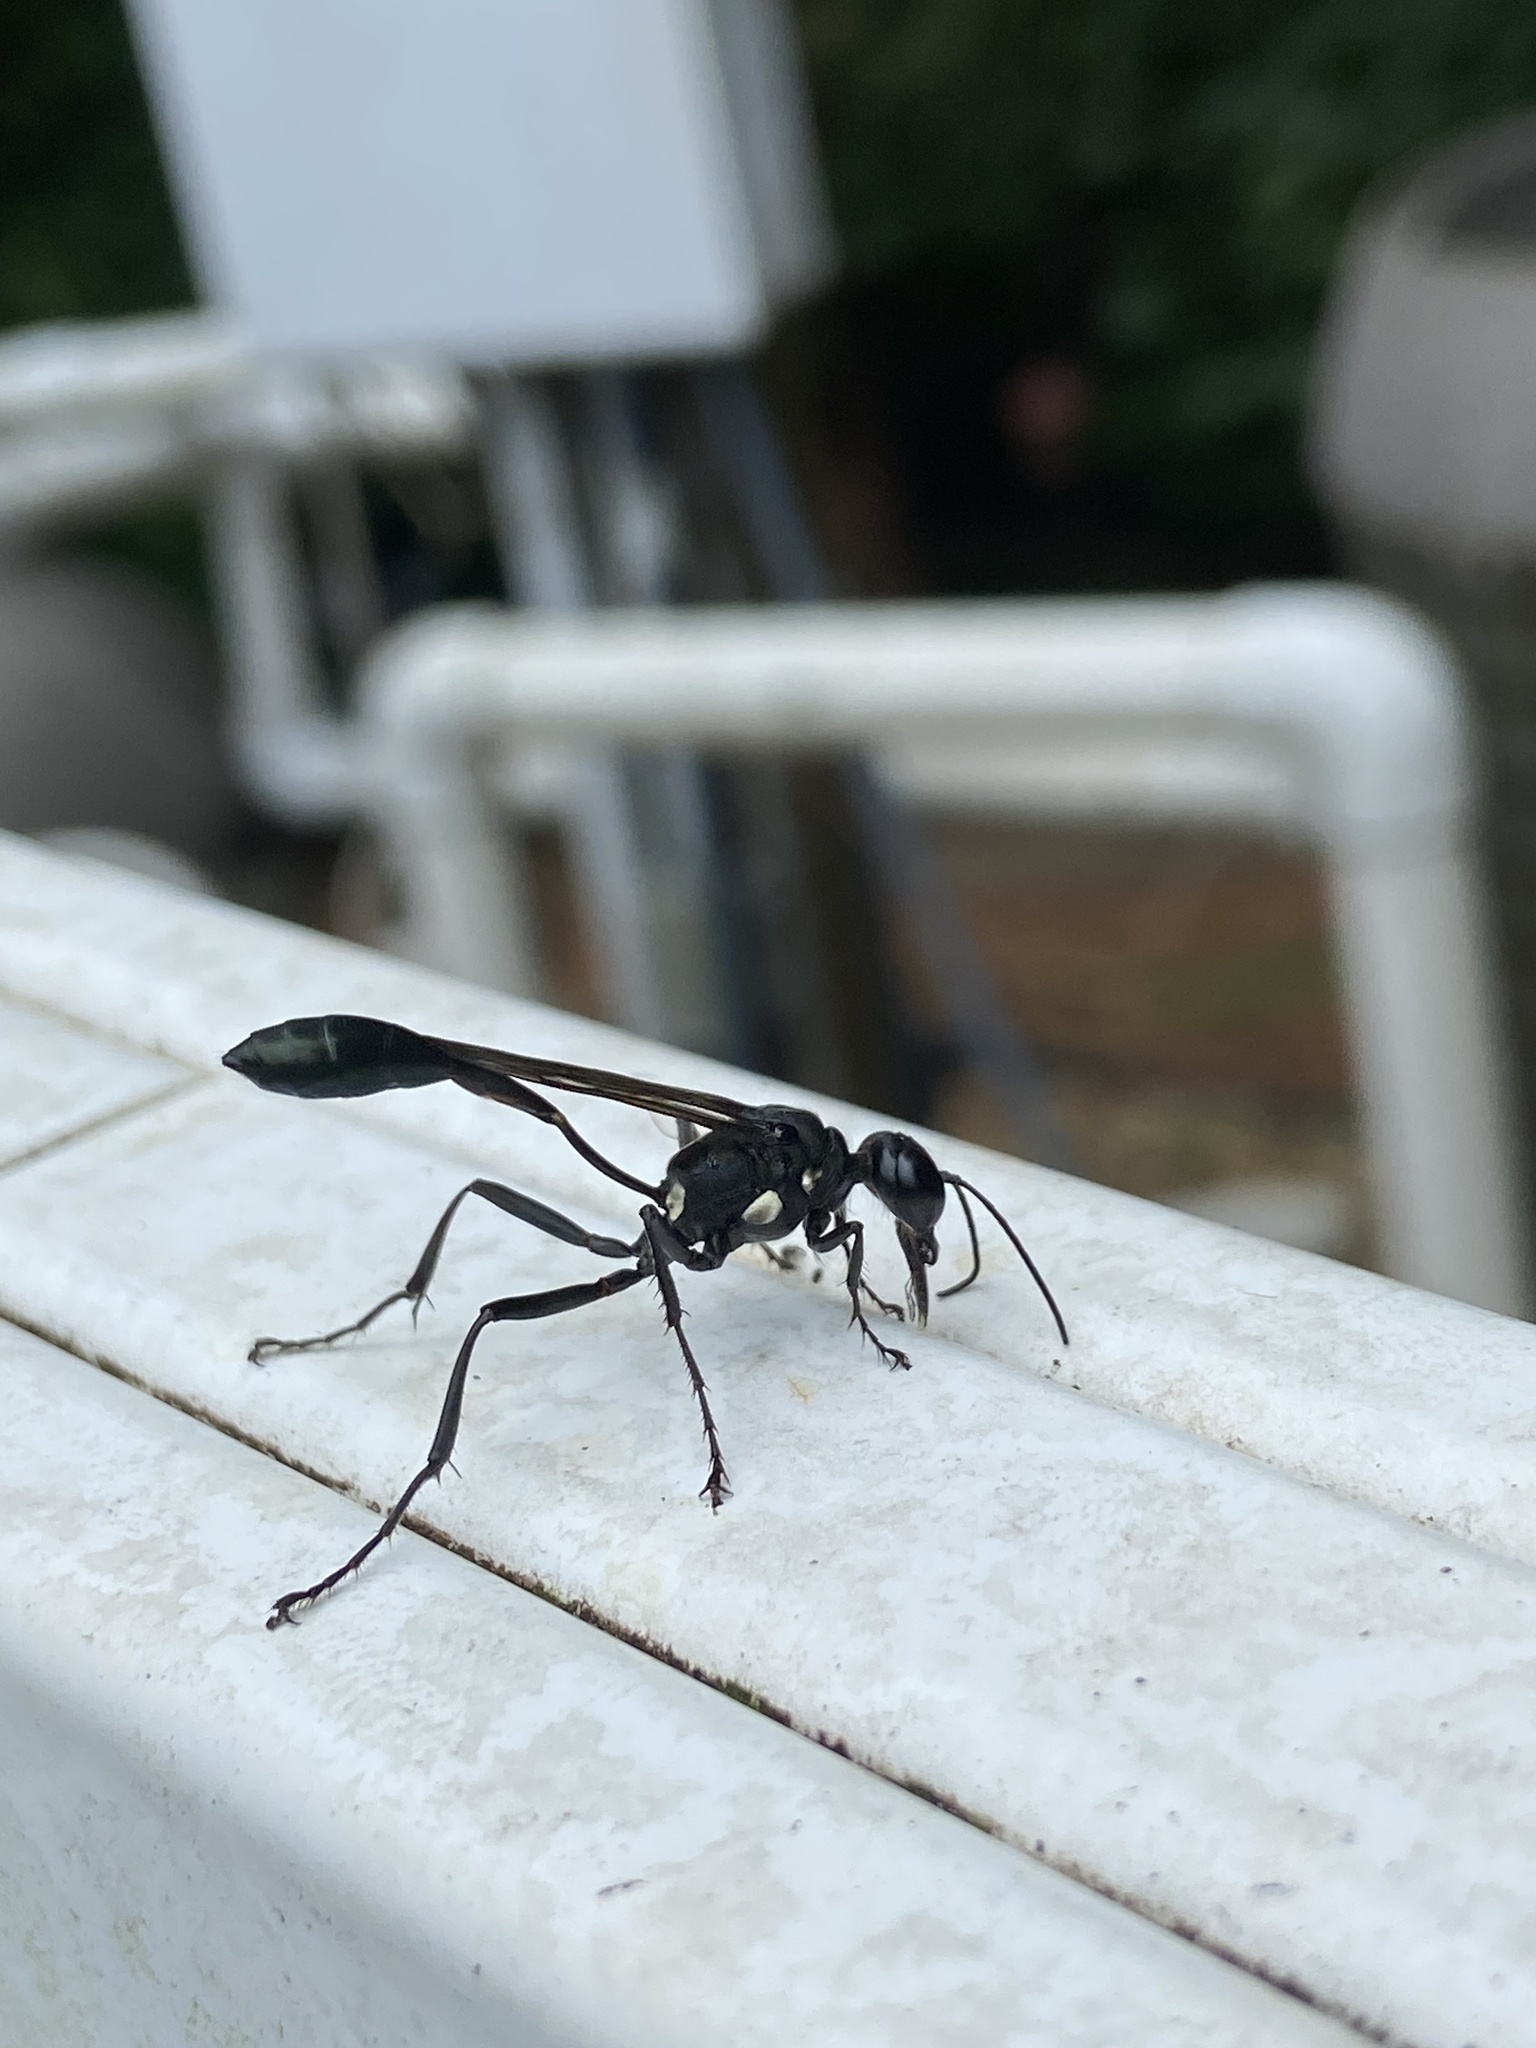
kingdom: Animalia
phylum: Arthropoda
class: Insecta
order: Hymenoptera
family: Sphecidae
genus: Eremnophila
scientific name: Eremnophila aureonotata
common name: Gold-marked thread-waisted wasp
